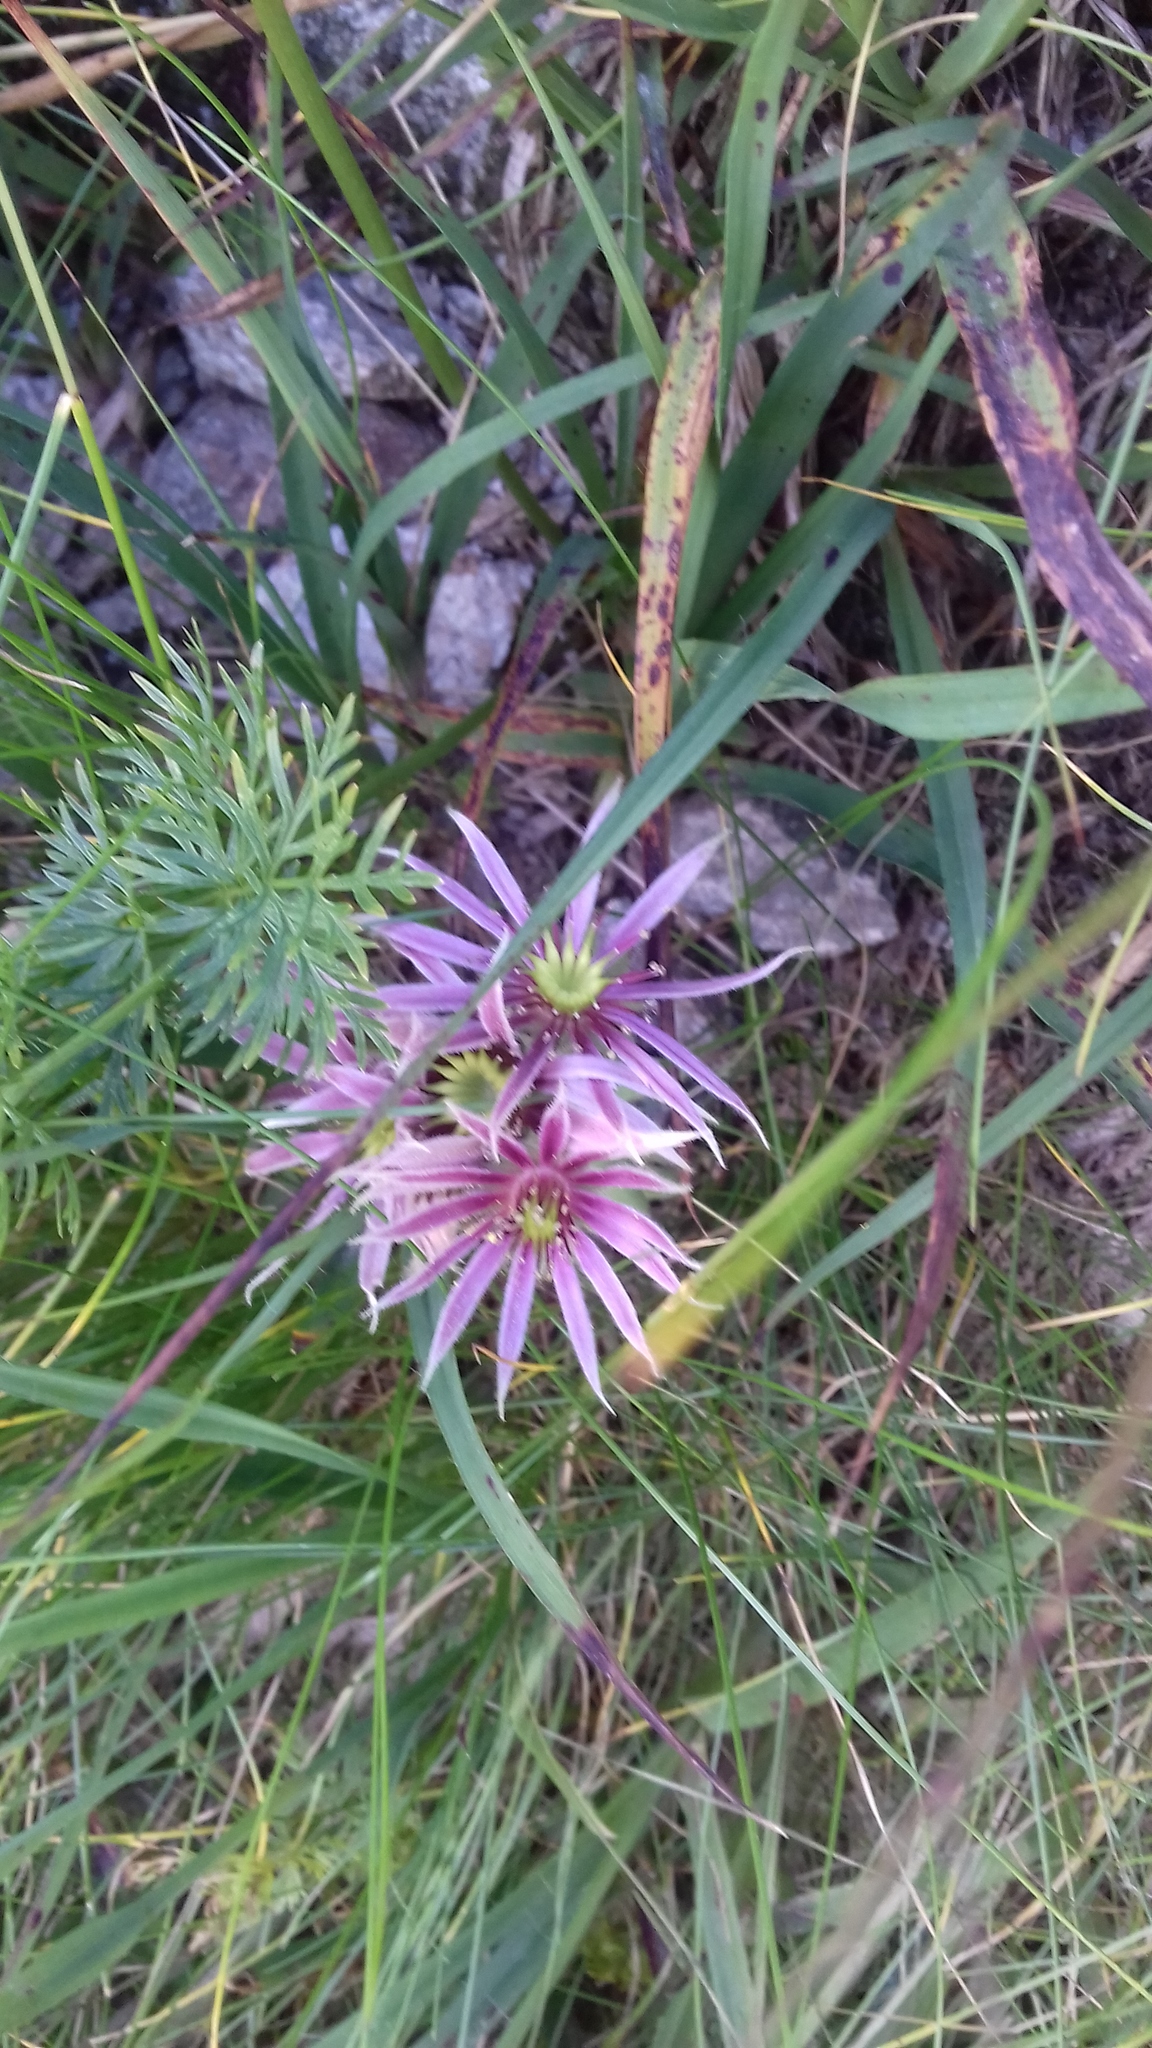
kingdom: Plantae
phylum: Tracheophyta
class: Magnoliopsida
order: Saxifragales
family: Crassulaceae
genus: Sempervivum
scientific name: Sempervivum montanum
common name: Mountain house-leek
